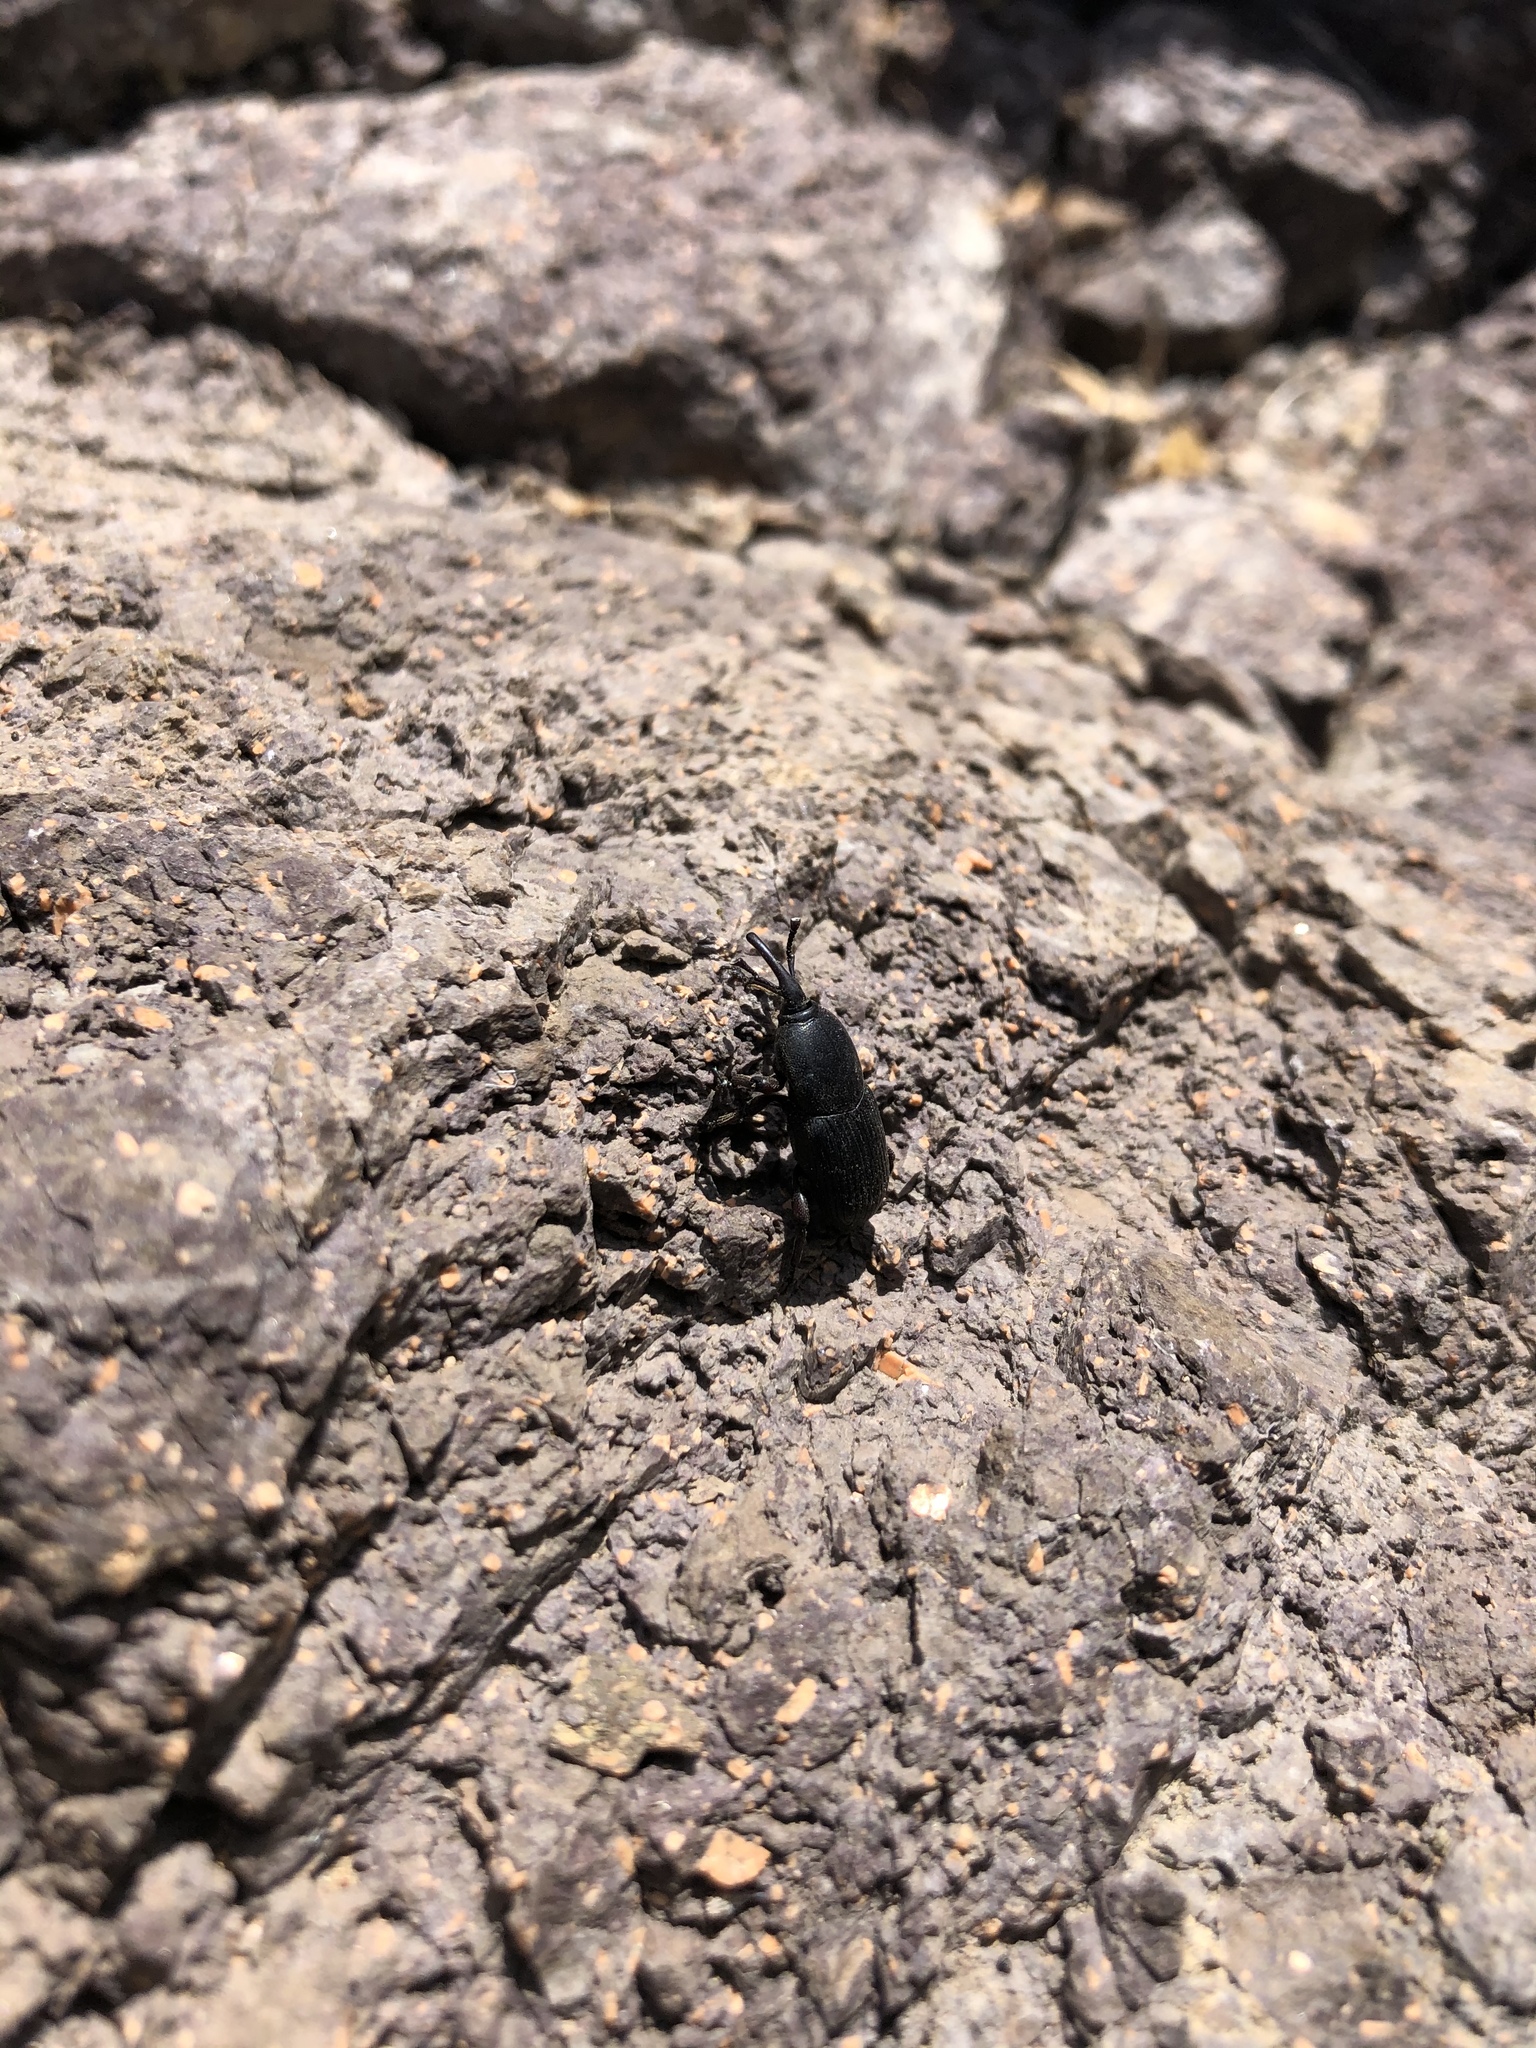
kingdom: Animalia
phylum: Arthropoda
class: Insecta
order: Coleoptera
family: Dryophthoridae
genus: Scyphophorus
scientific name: Scyphophorus acupunctatus
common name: Weevil
